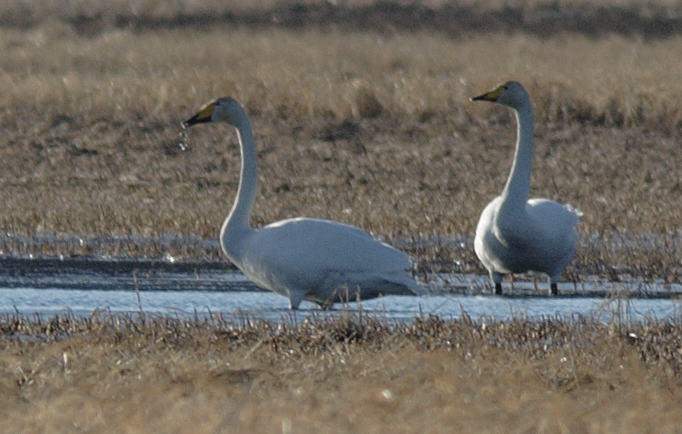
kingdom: Animalia
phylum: Chordata
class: Aves
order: Anseriformes
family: Anatidae
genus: Cygnus
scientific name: Cygnus cygnus
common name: Whooper swan
